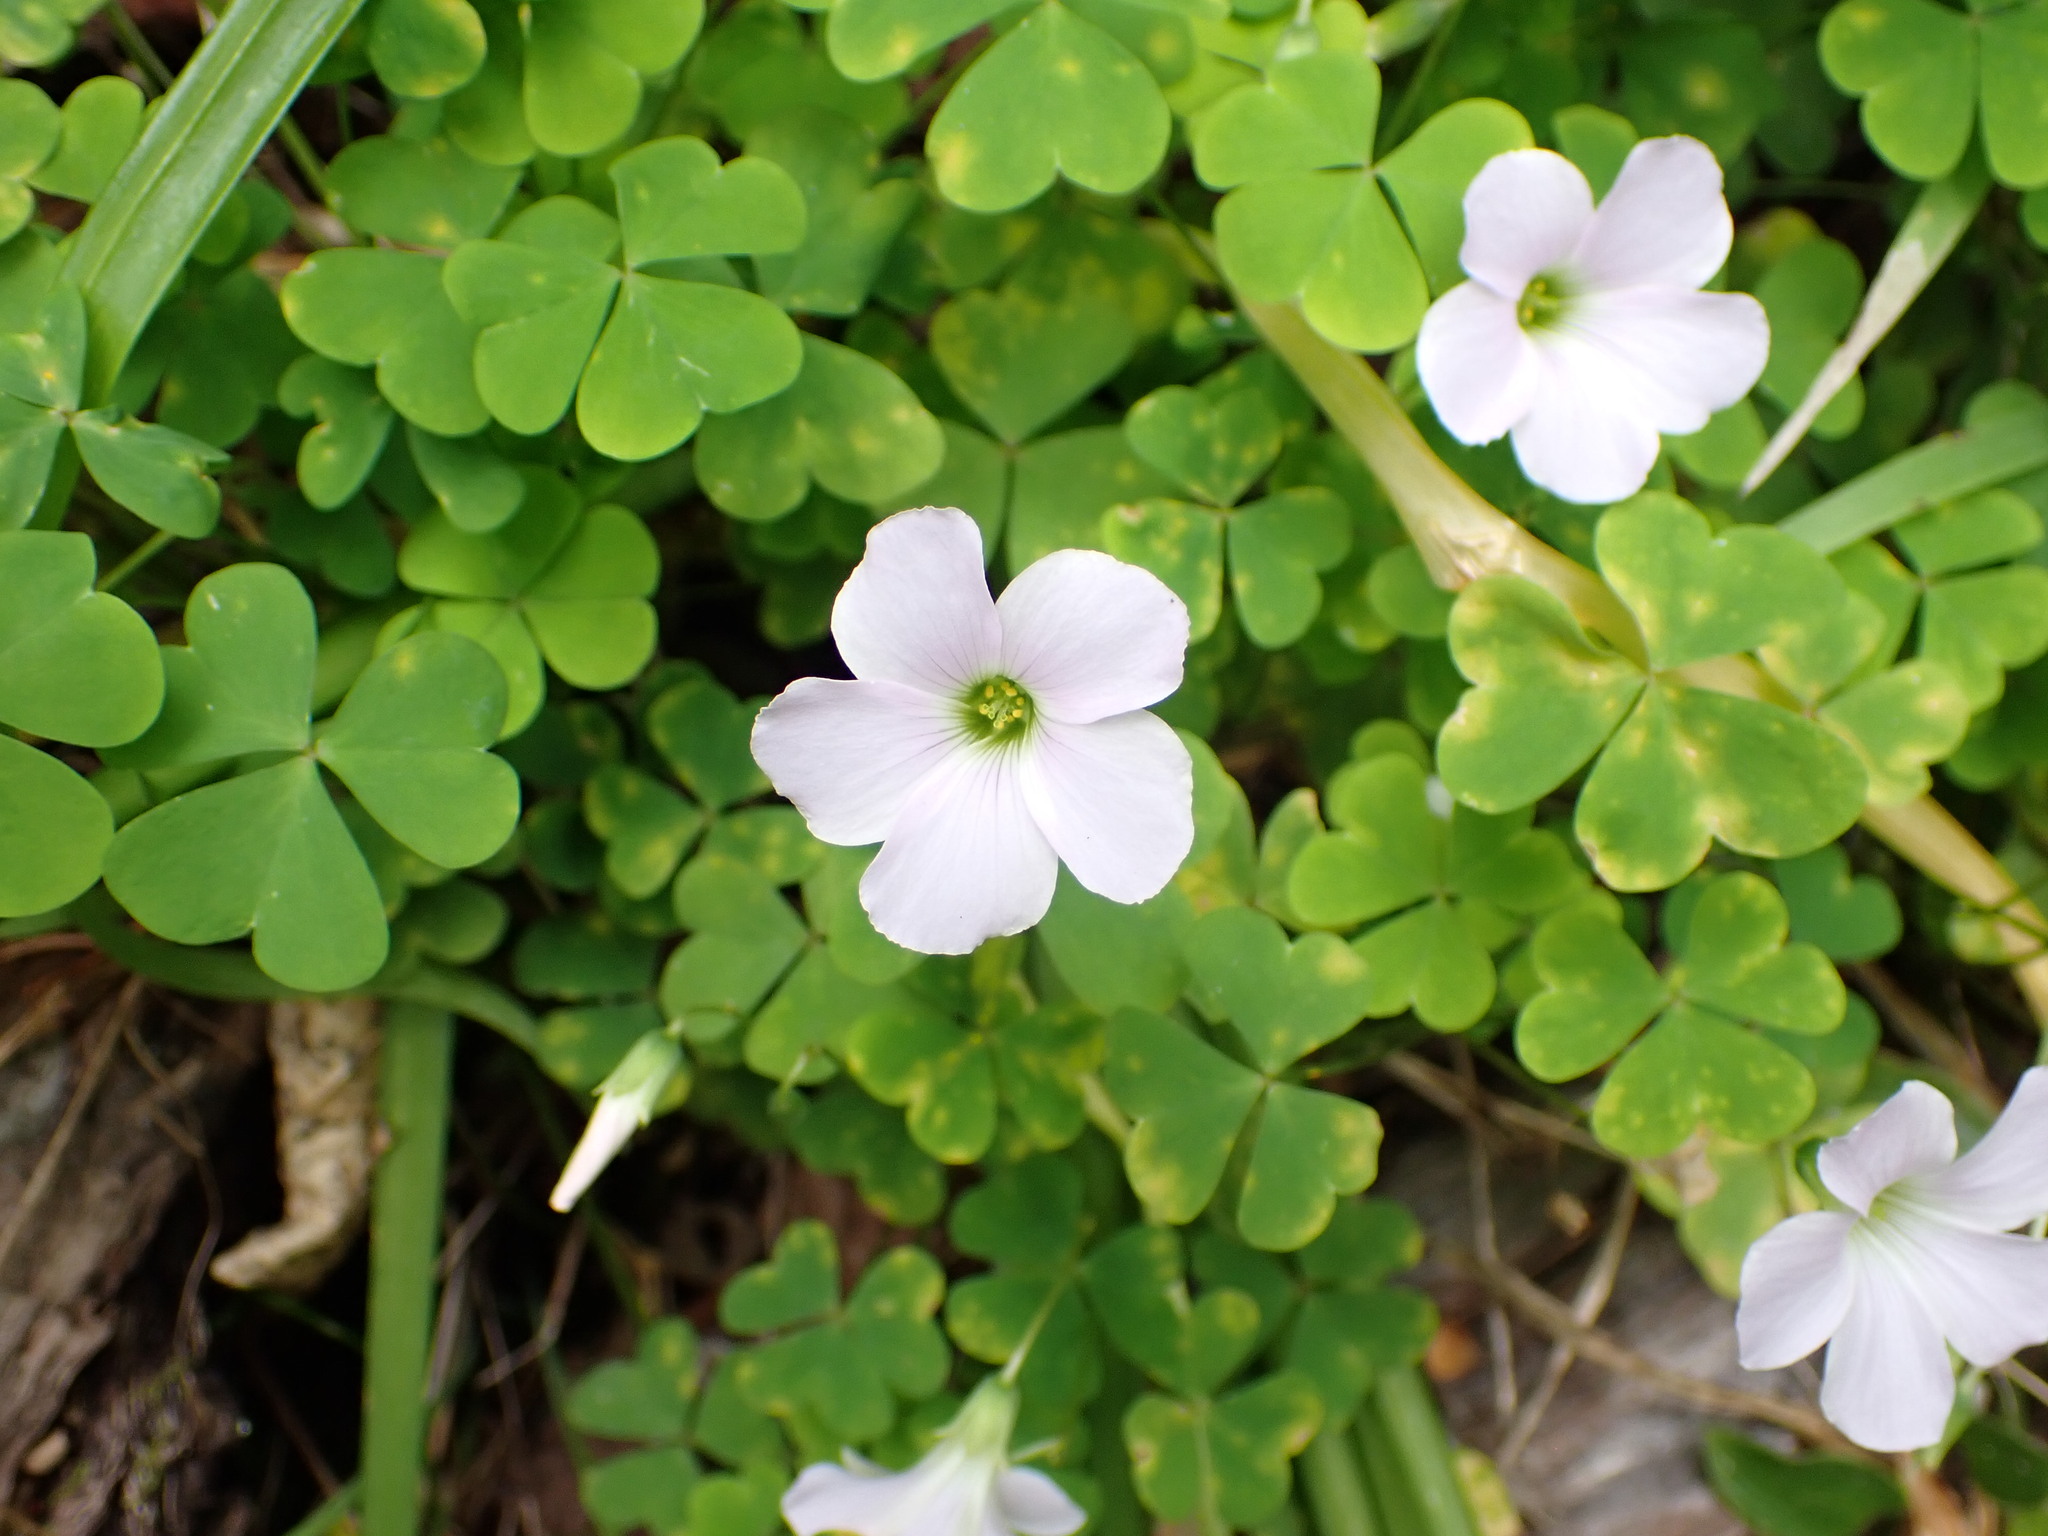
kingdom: Plantae
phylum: Tracheophyta
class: Magnoliopsida
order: Oxalidales
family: Oxalidaceae
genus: Oxalis
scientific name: Oxalis incarnata
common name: Pale pink-sorrel
